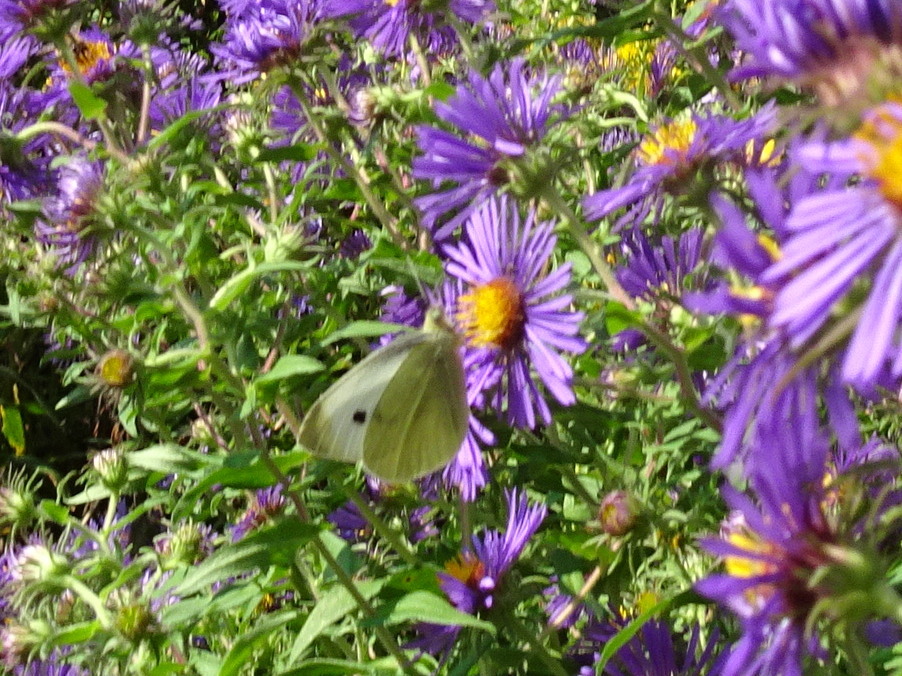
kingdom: Animalia
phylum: Arthropoda
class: Insecta
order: Lepidoptera
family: Pieridae
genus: Pieris
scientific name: Pieris rapae
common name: Small white
